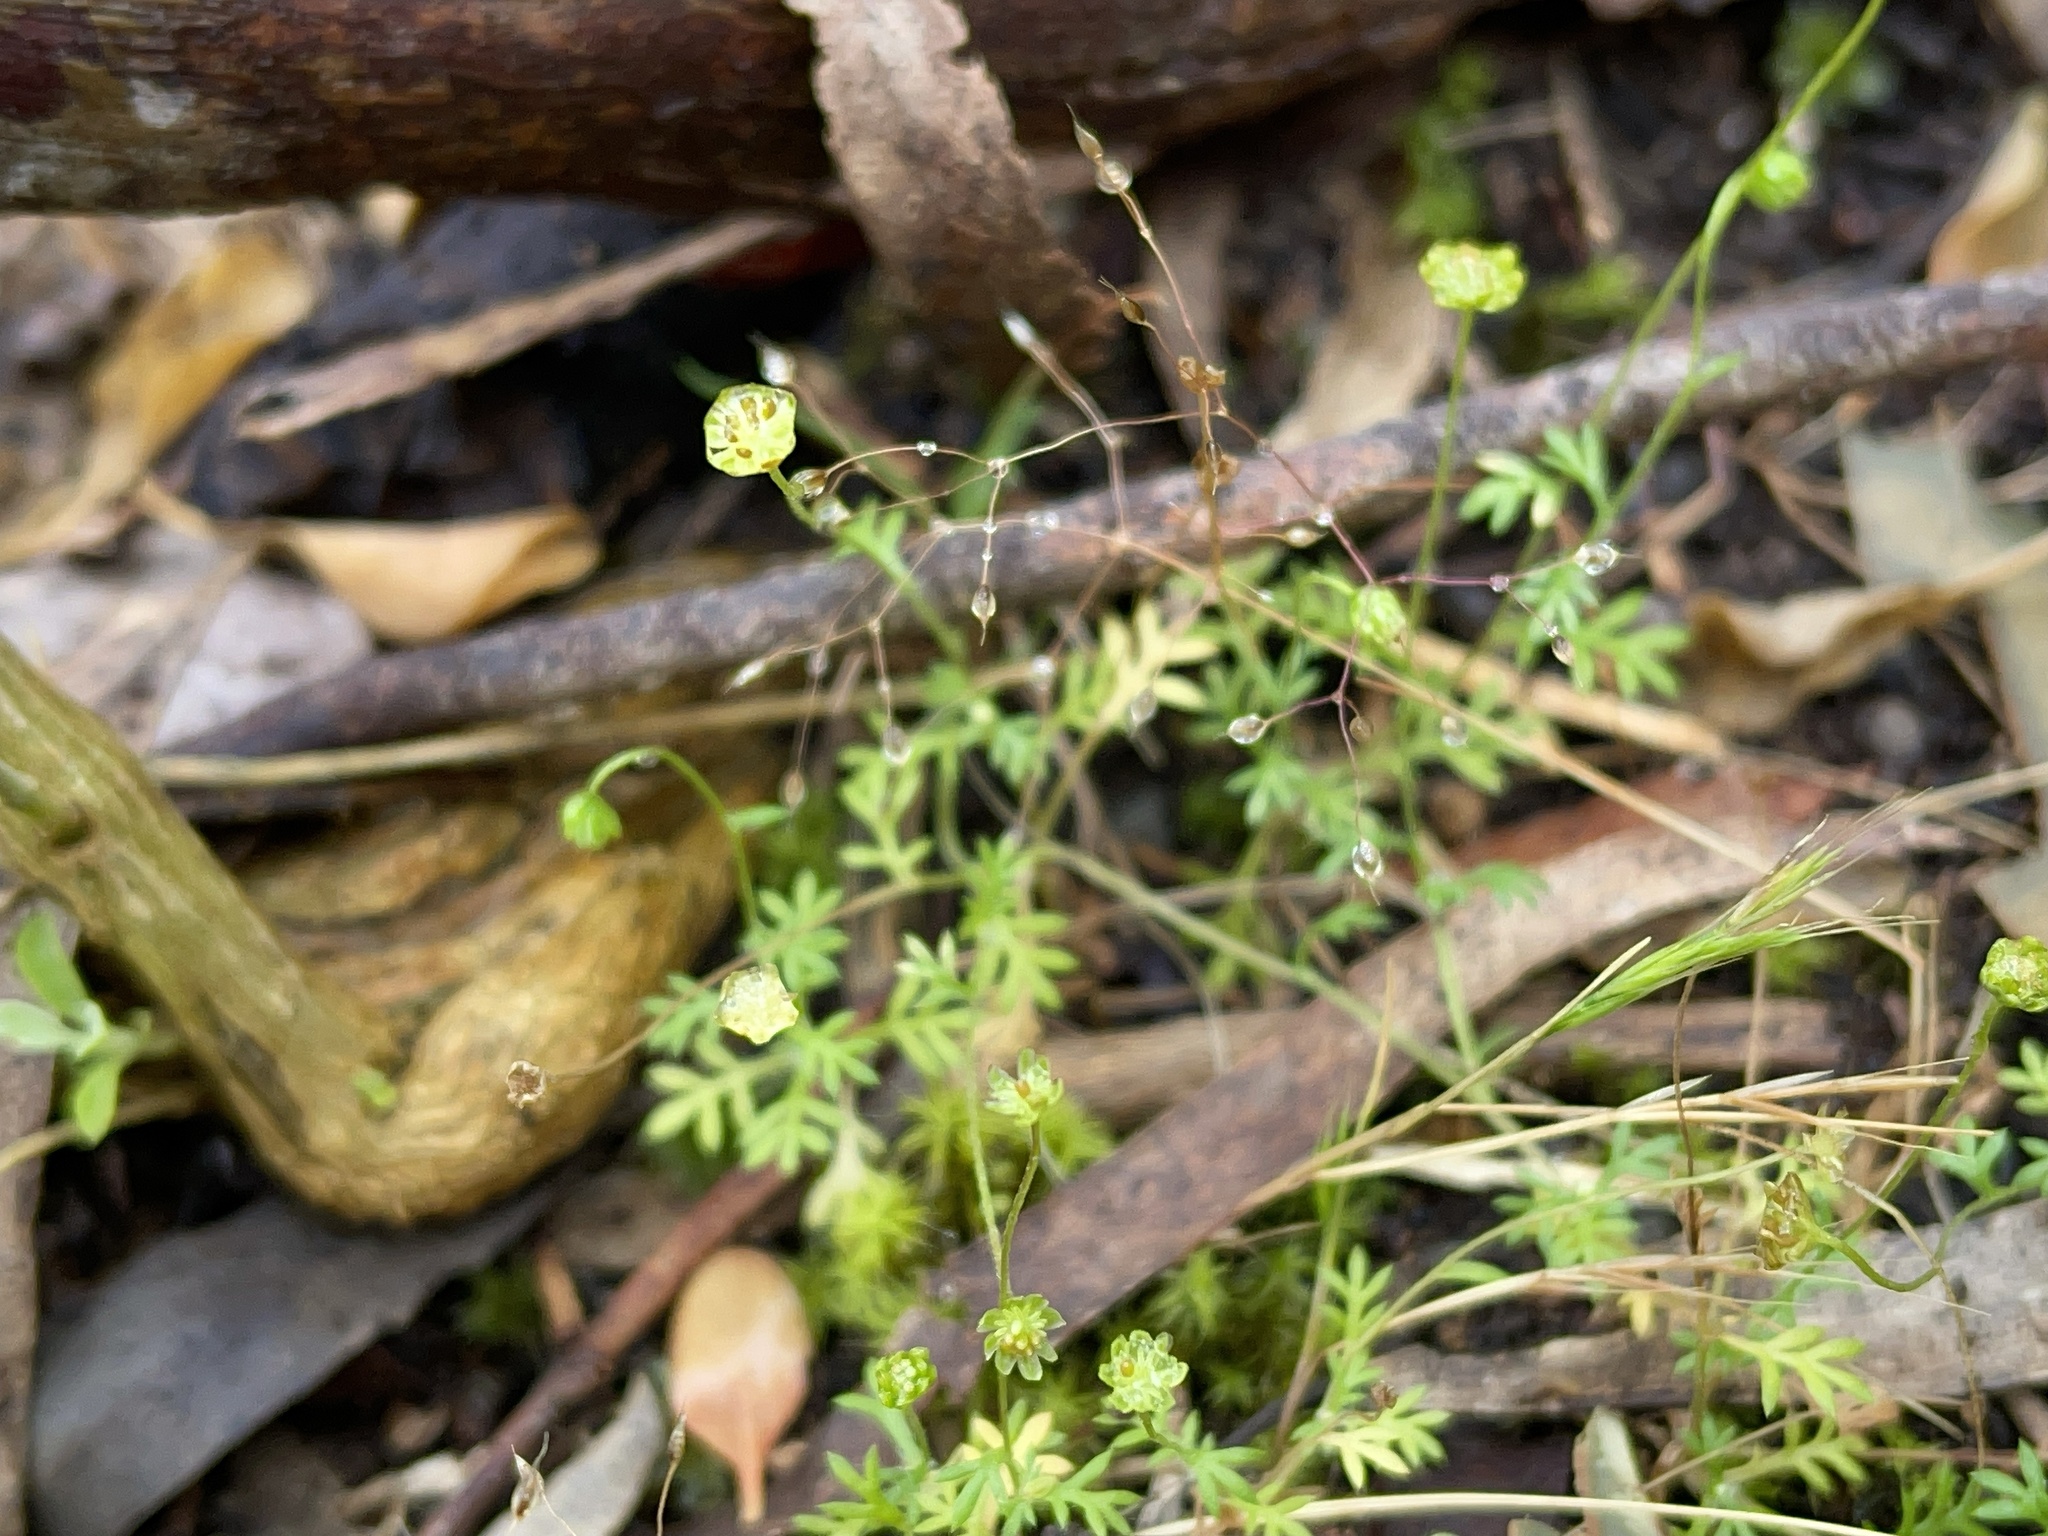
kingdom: Plantae
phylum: Tracheophyta
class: Magnoliopsida
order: Asterales
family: Asteraceae
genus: Cotula
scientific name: Cotula australis
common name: Australian waterbuttons
